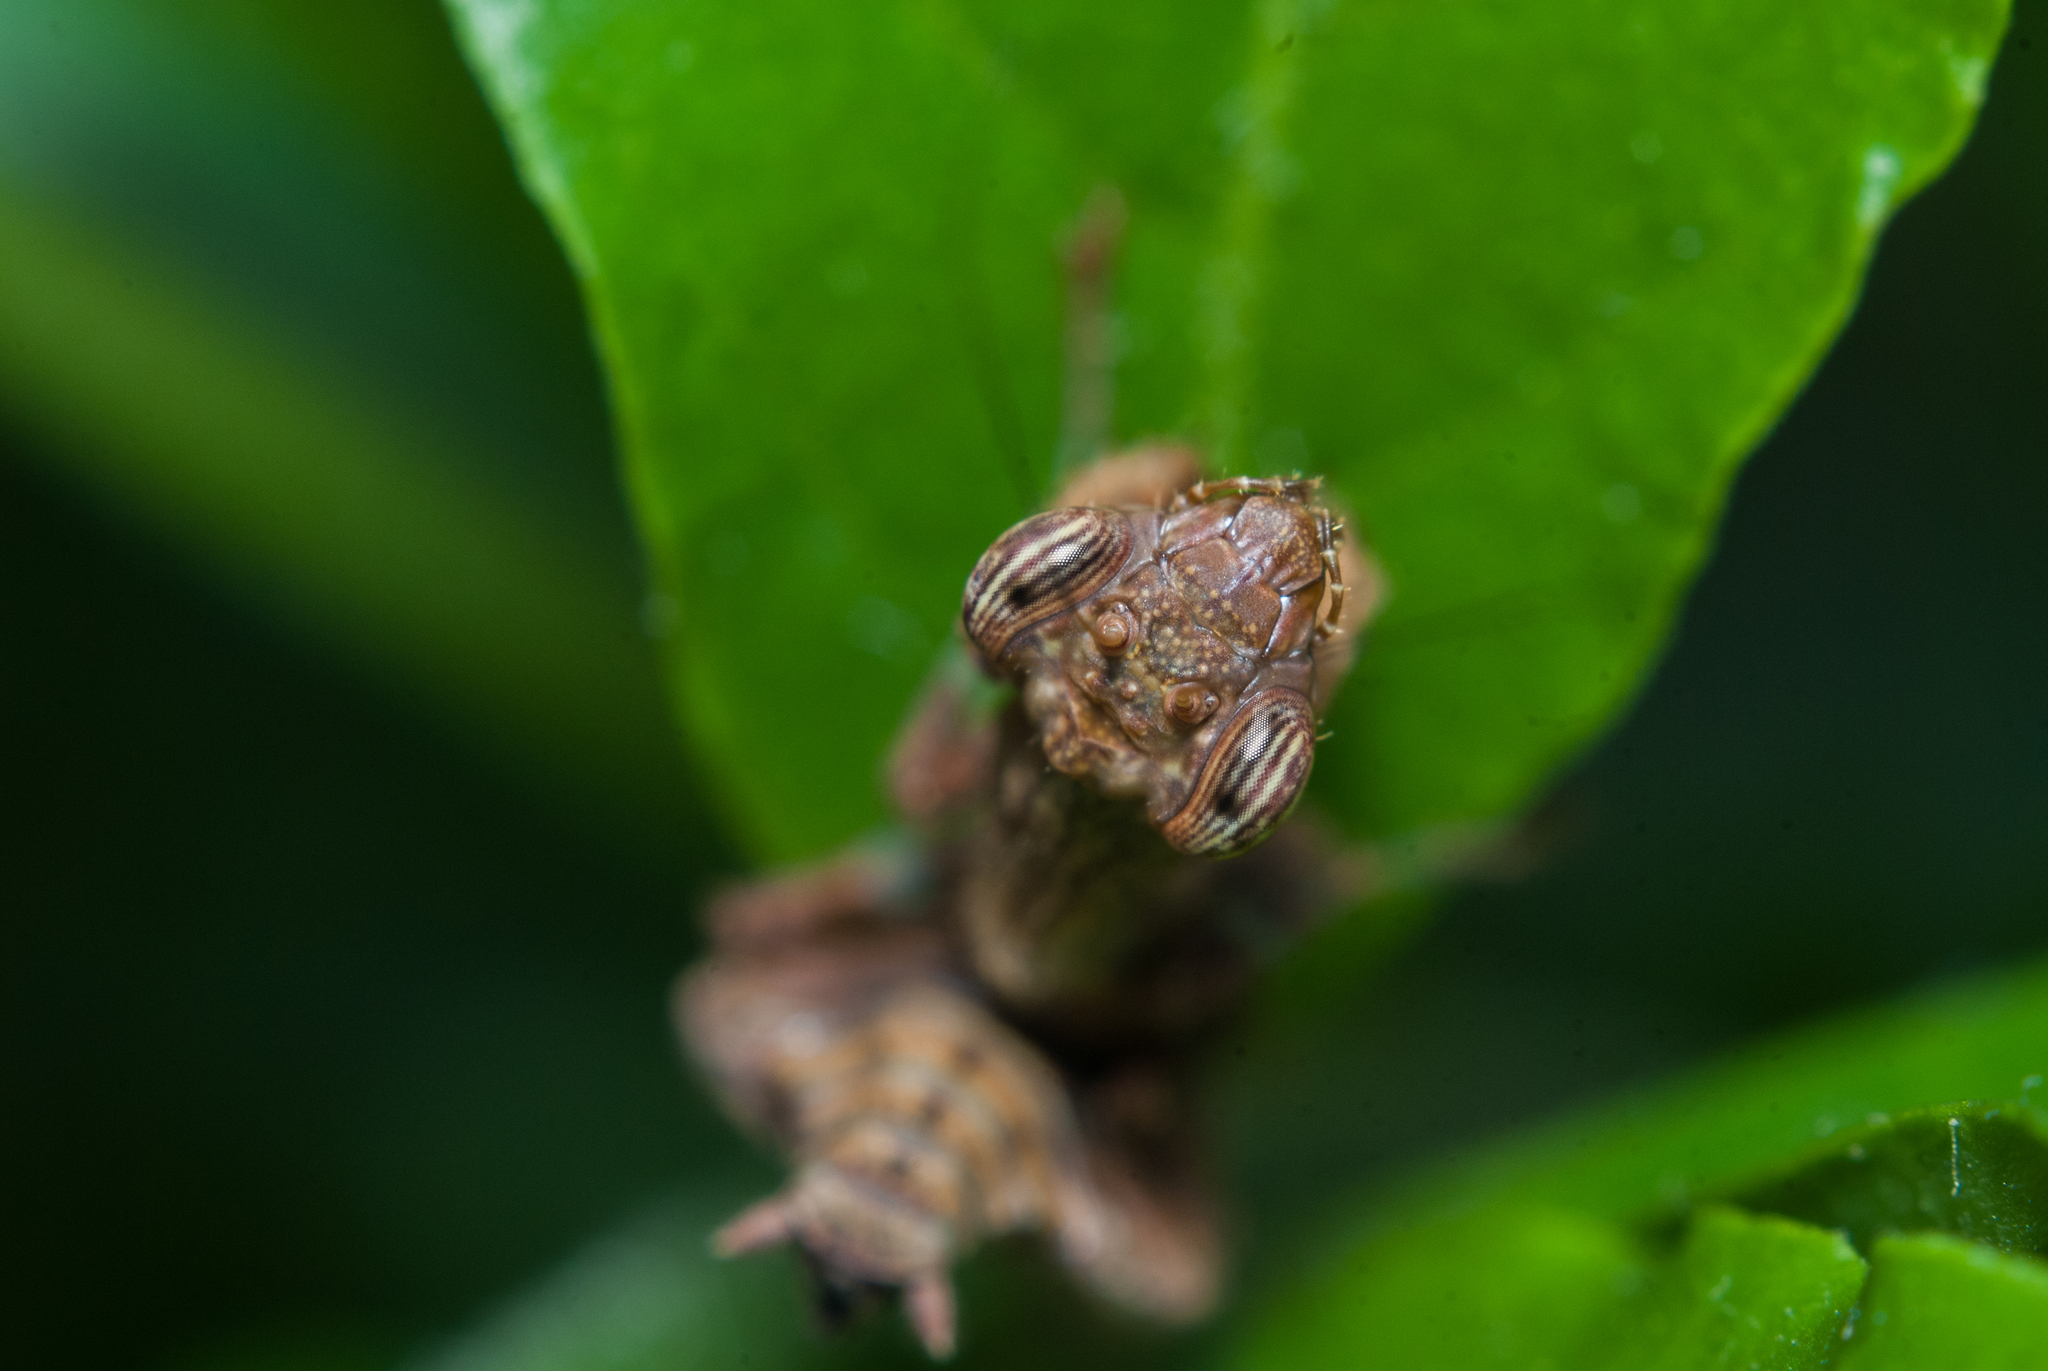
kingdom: Animalia
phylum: Arthropoda
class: Insecta
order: Mantodea
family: Acanthopidae
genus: Raptrix
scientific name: Raptrix
